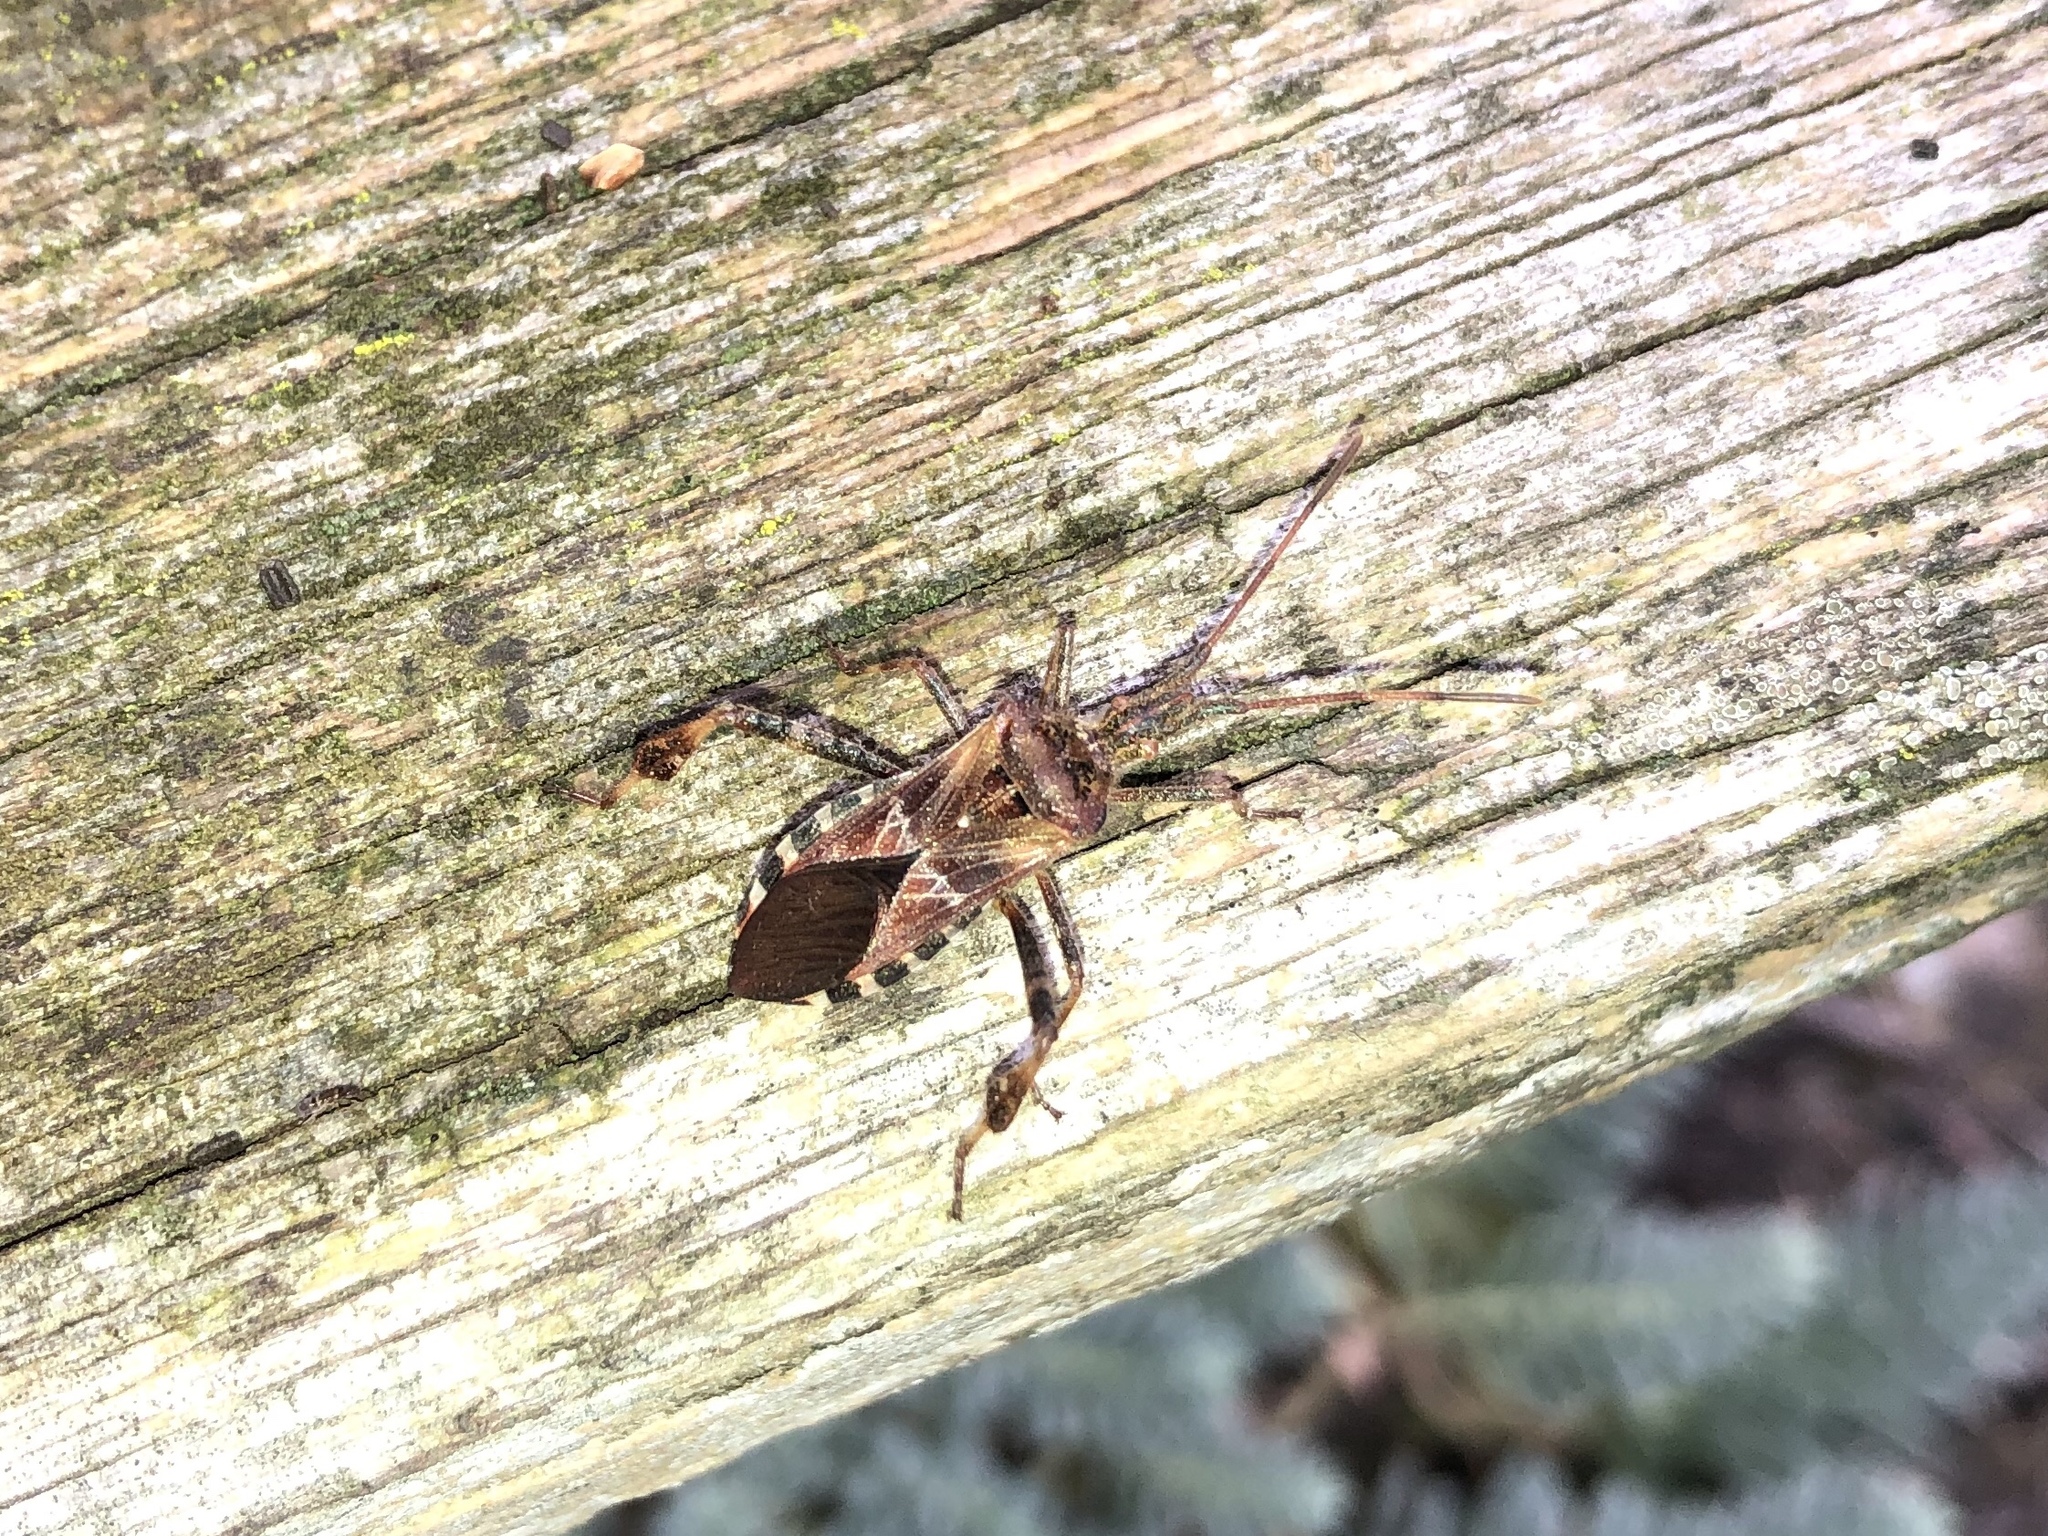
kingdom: Animalia
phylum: Arthropoda
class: Insecta
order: Hemiptera
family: Coreidae
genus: Leptoglossus
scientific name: Leptoglossus occidentalis
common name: Western conifer-seed bug
